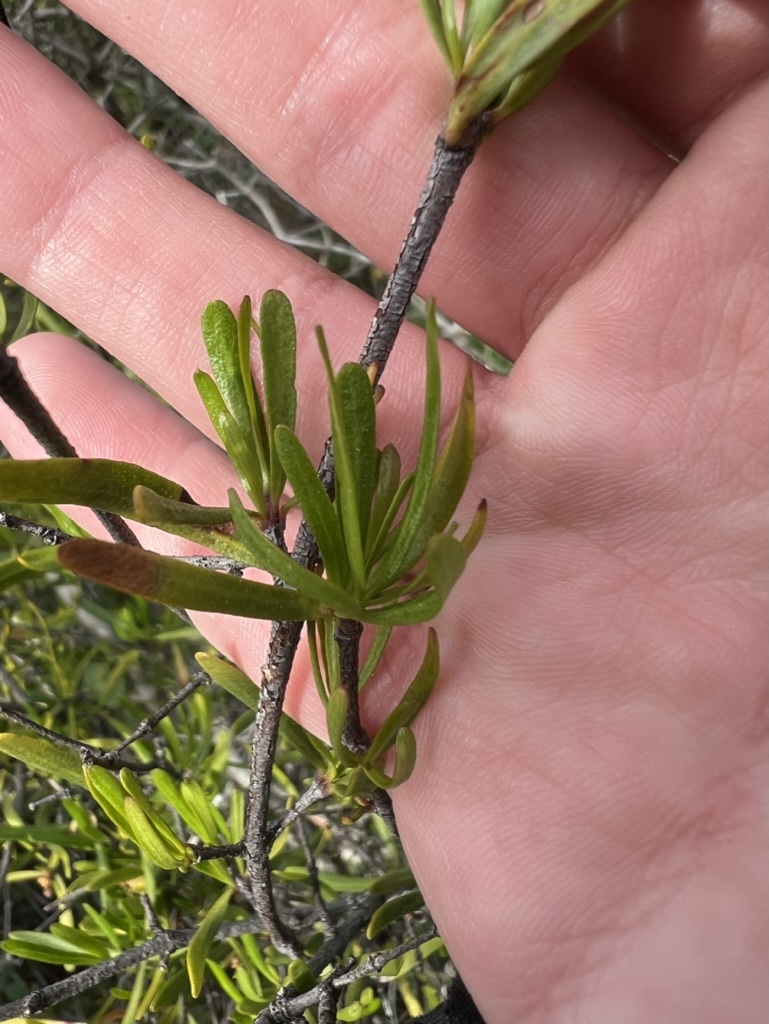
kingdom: Plantae
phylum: Tracheophyta
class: Magnoliopsida
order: Sapindales
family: Rutaceae
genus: Cneoridium
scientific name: Cneoridium dumosum
